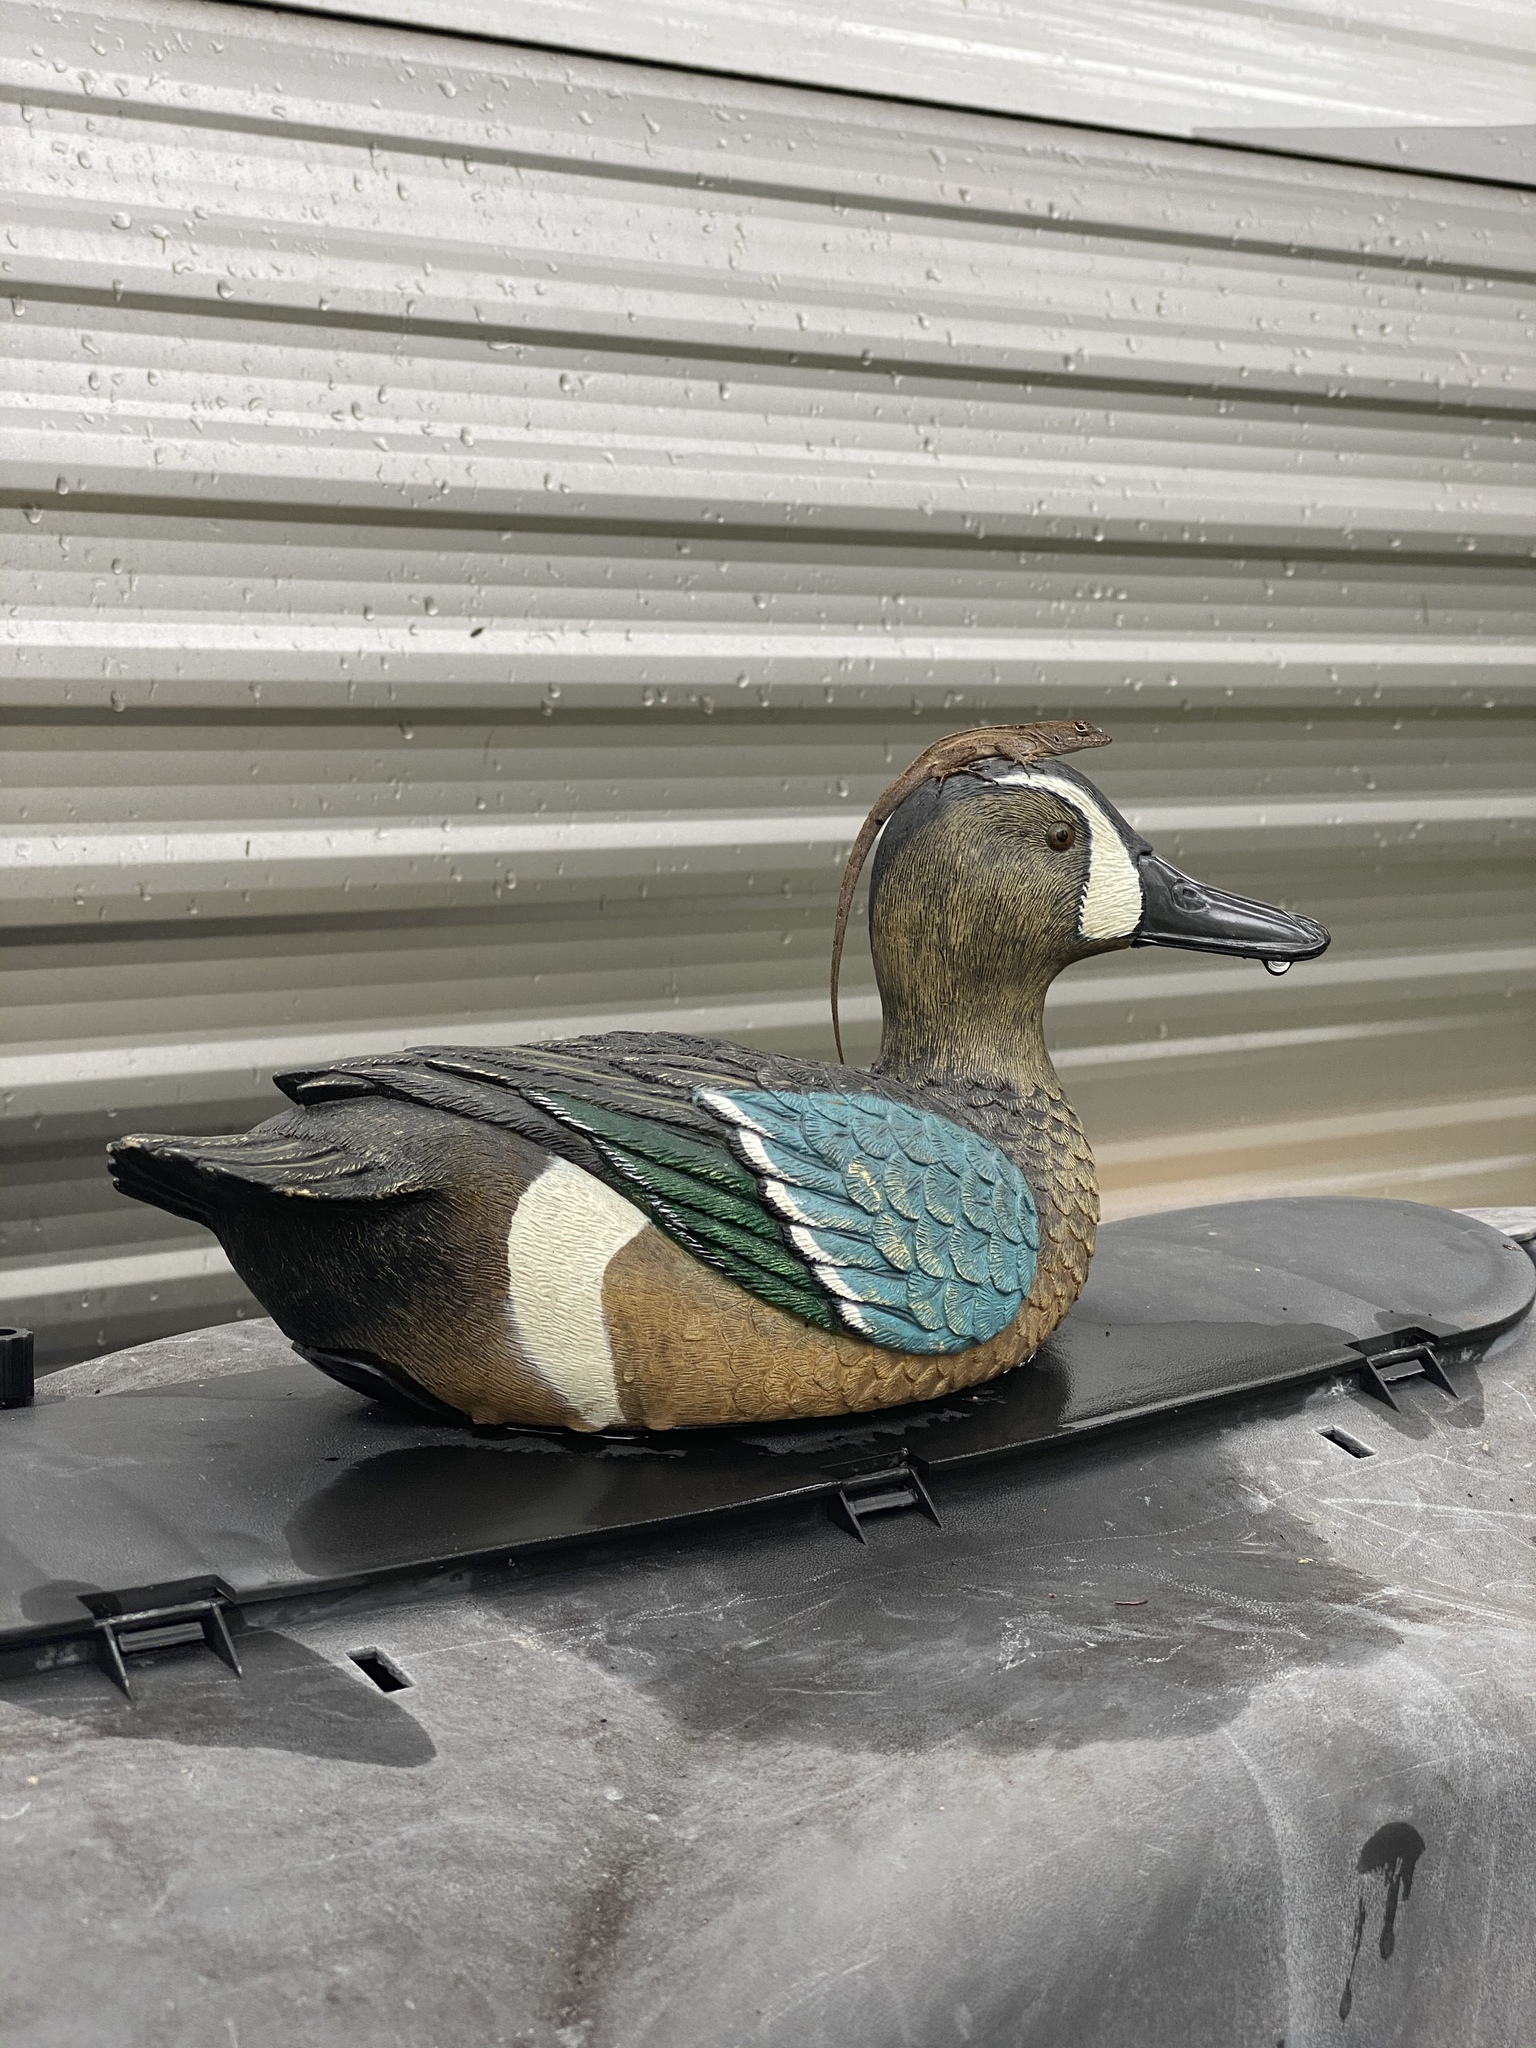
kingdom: Animalia
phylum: Chordata
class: Squamata
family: Dactyloidae
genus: Anolis
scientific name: Anolis sagrei
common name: Brown anole
